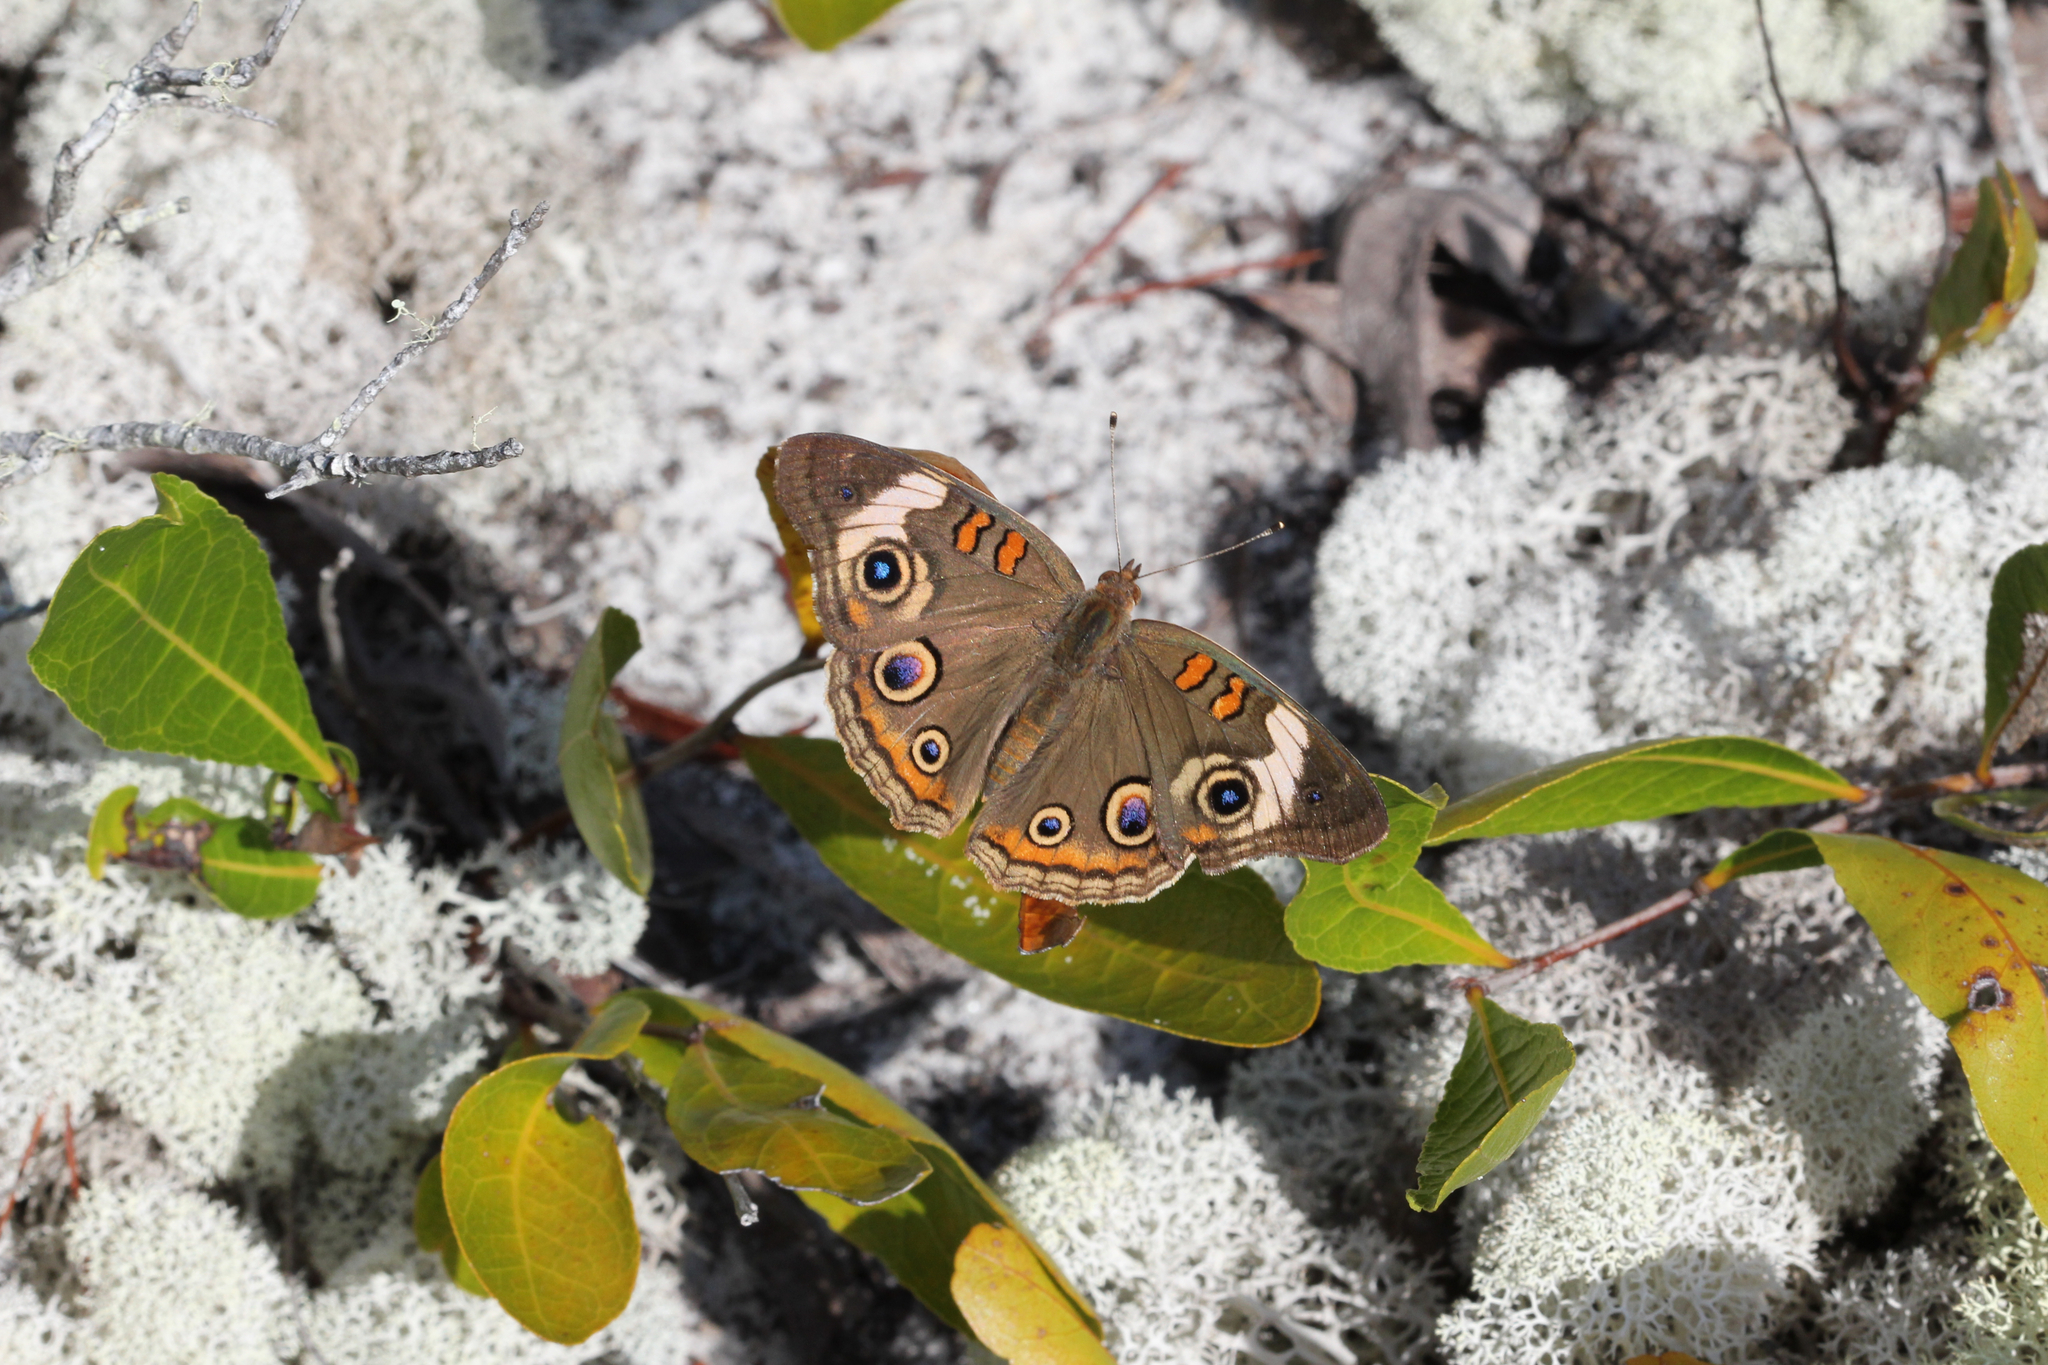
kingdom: Animalia
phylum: Arthropoda
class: Insecta
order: Lepidoptera
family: Nymphalidae
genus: Junonia
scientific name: Junonia coenia
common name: Common buckeye
